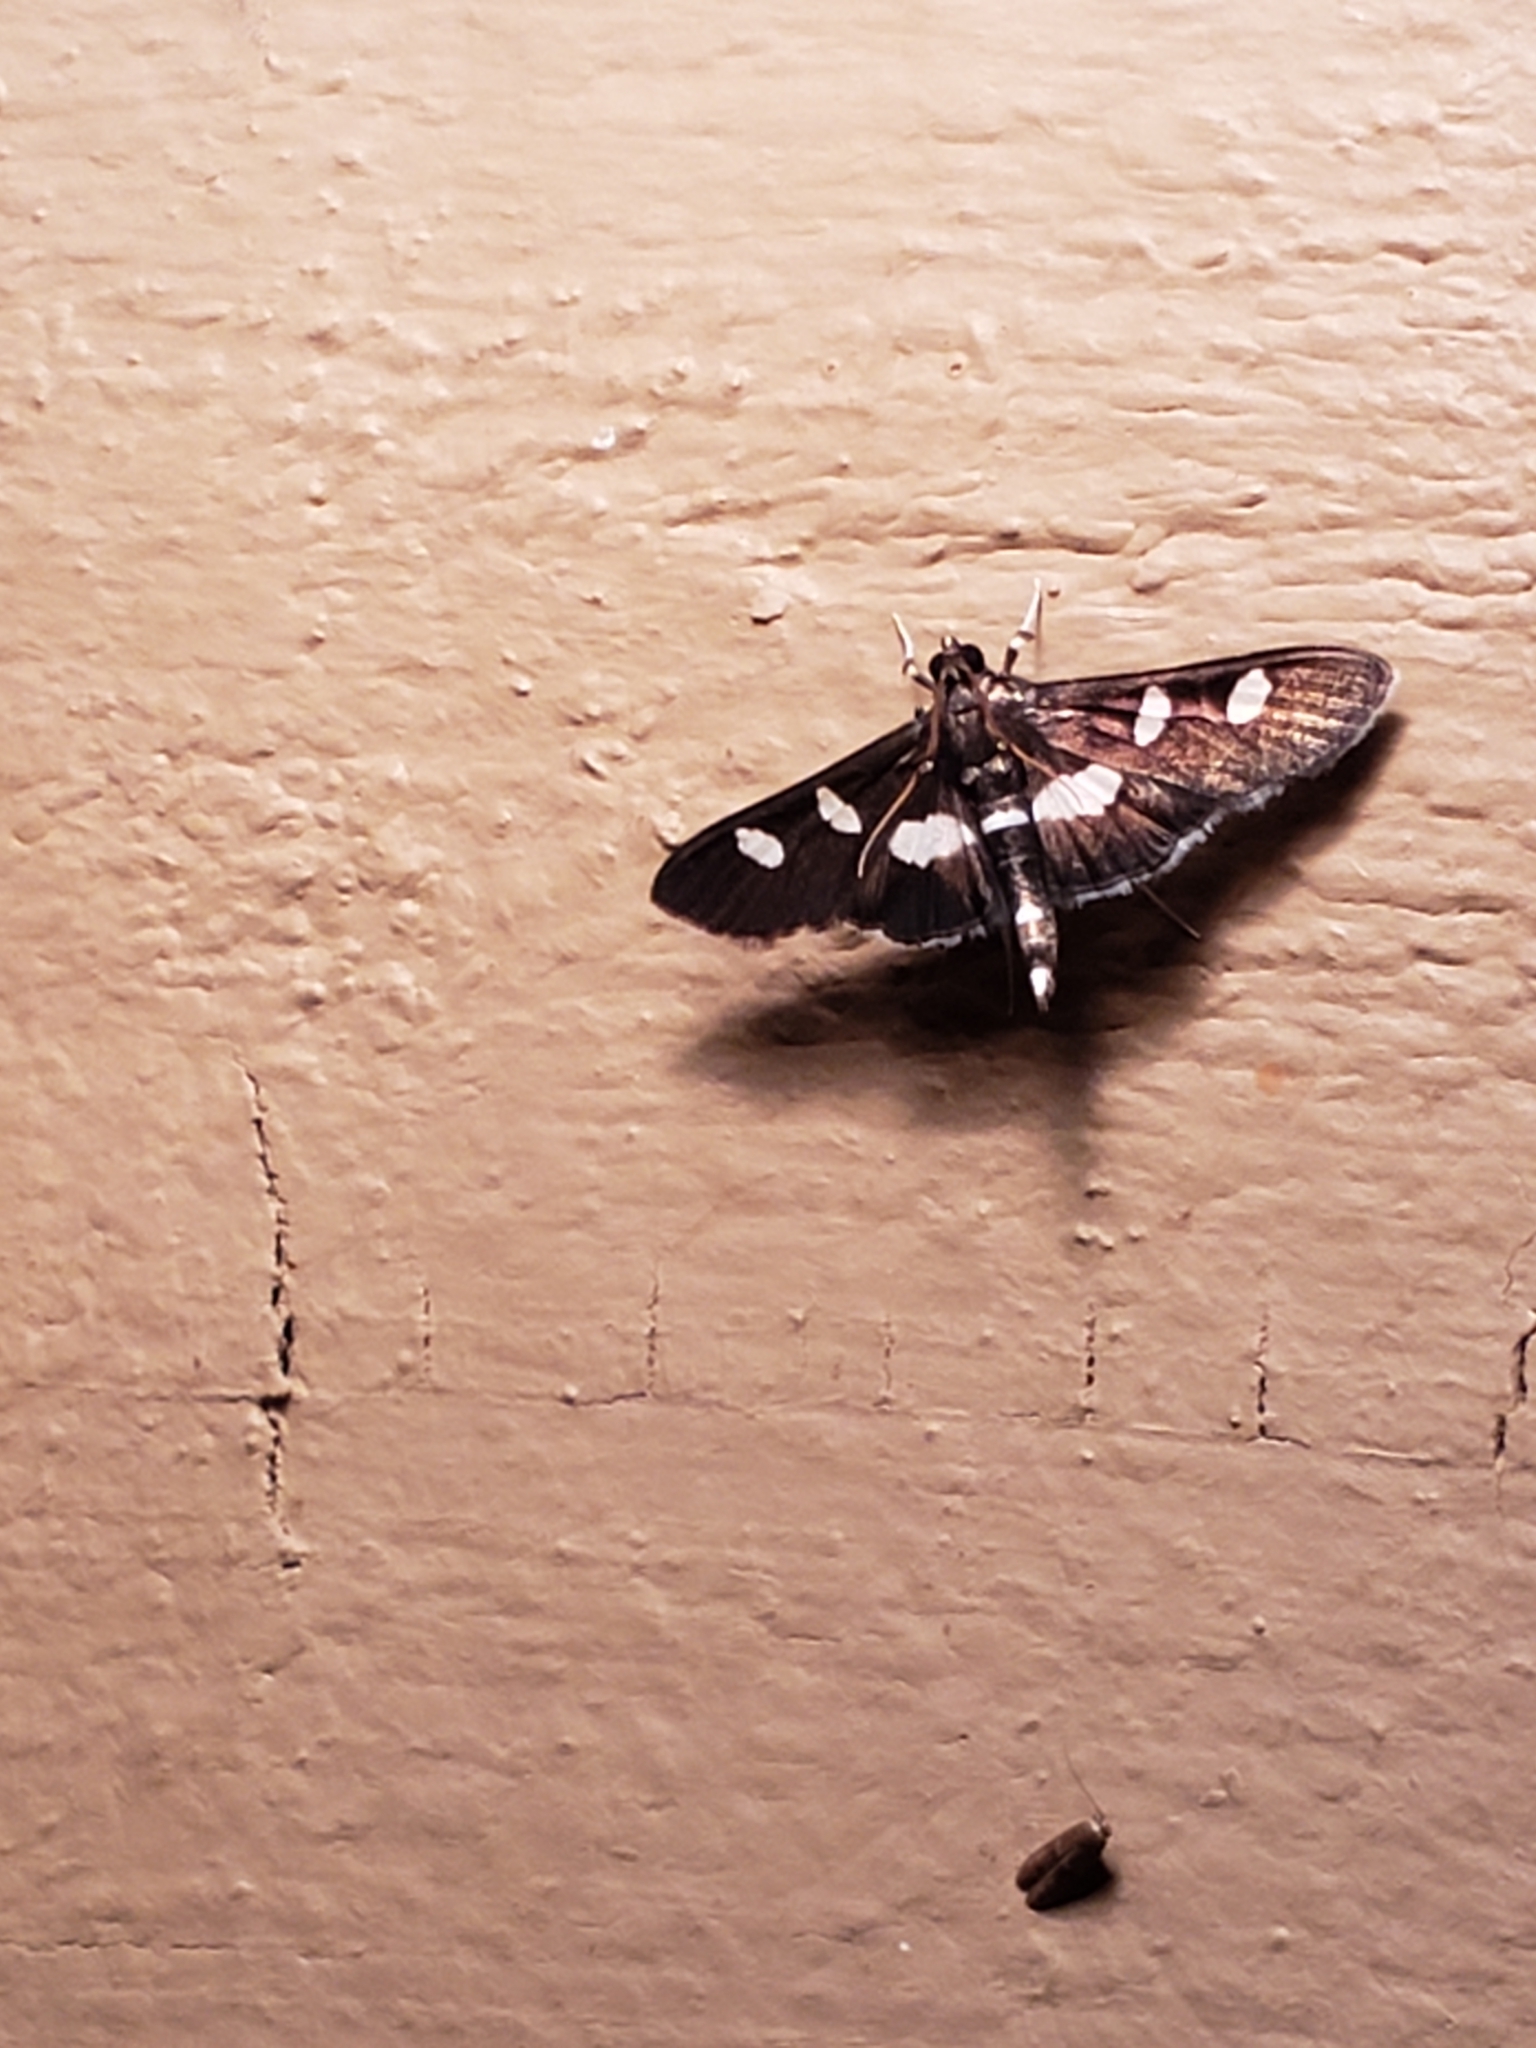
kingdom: Animalia
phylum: Arthropoda
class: Insecta
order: Lepidoptera
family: Crambidae
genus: Desmia
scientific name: Desmia
